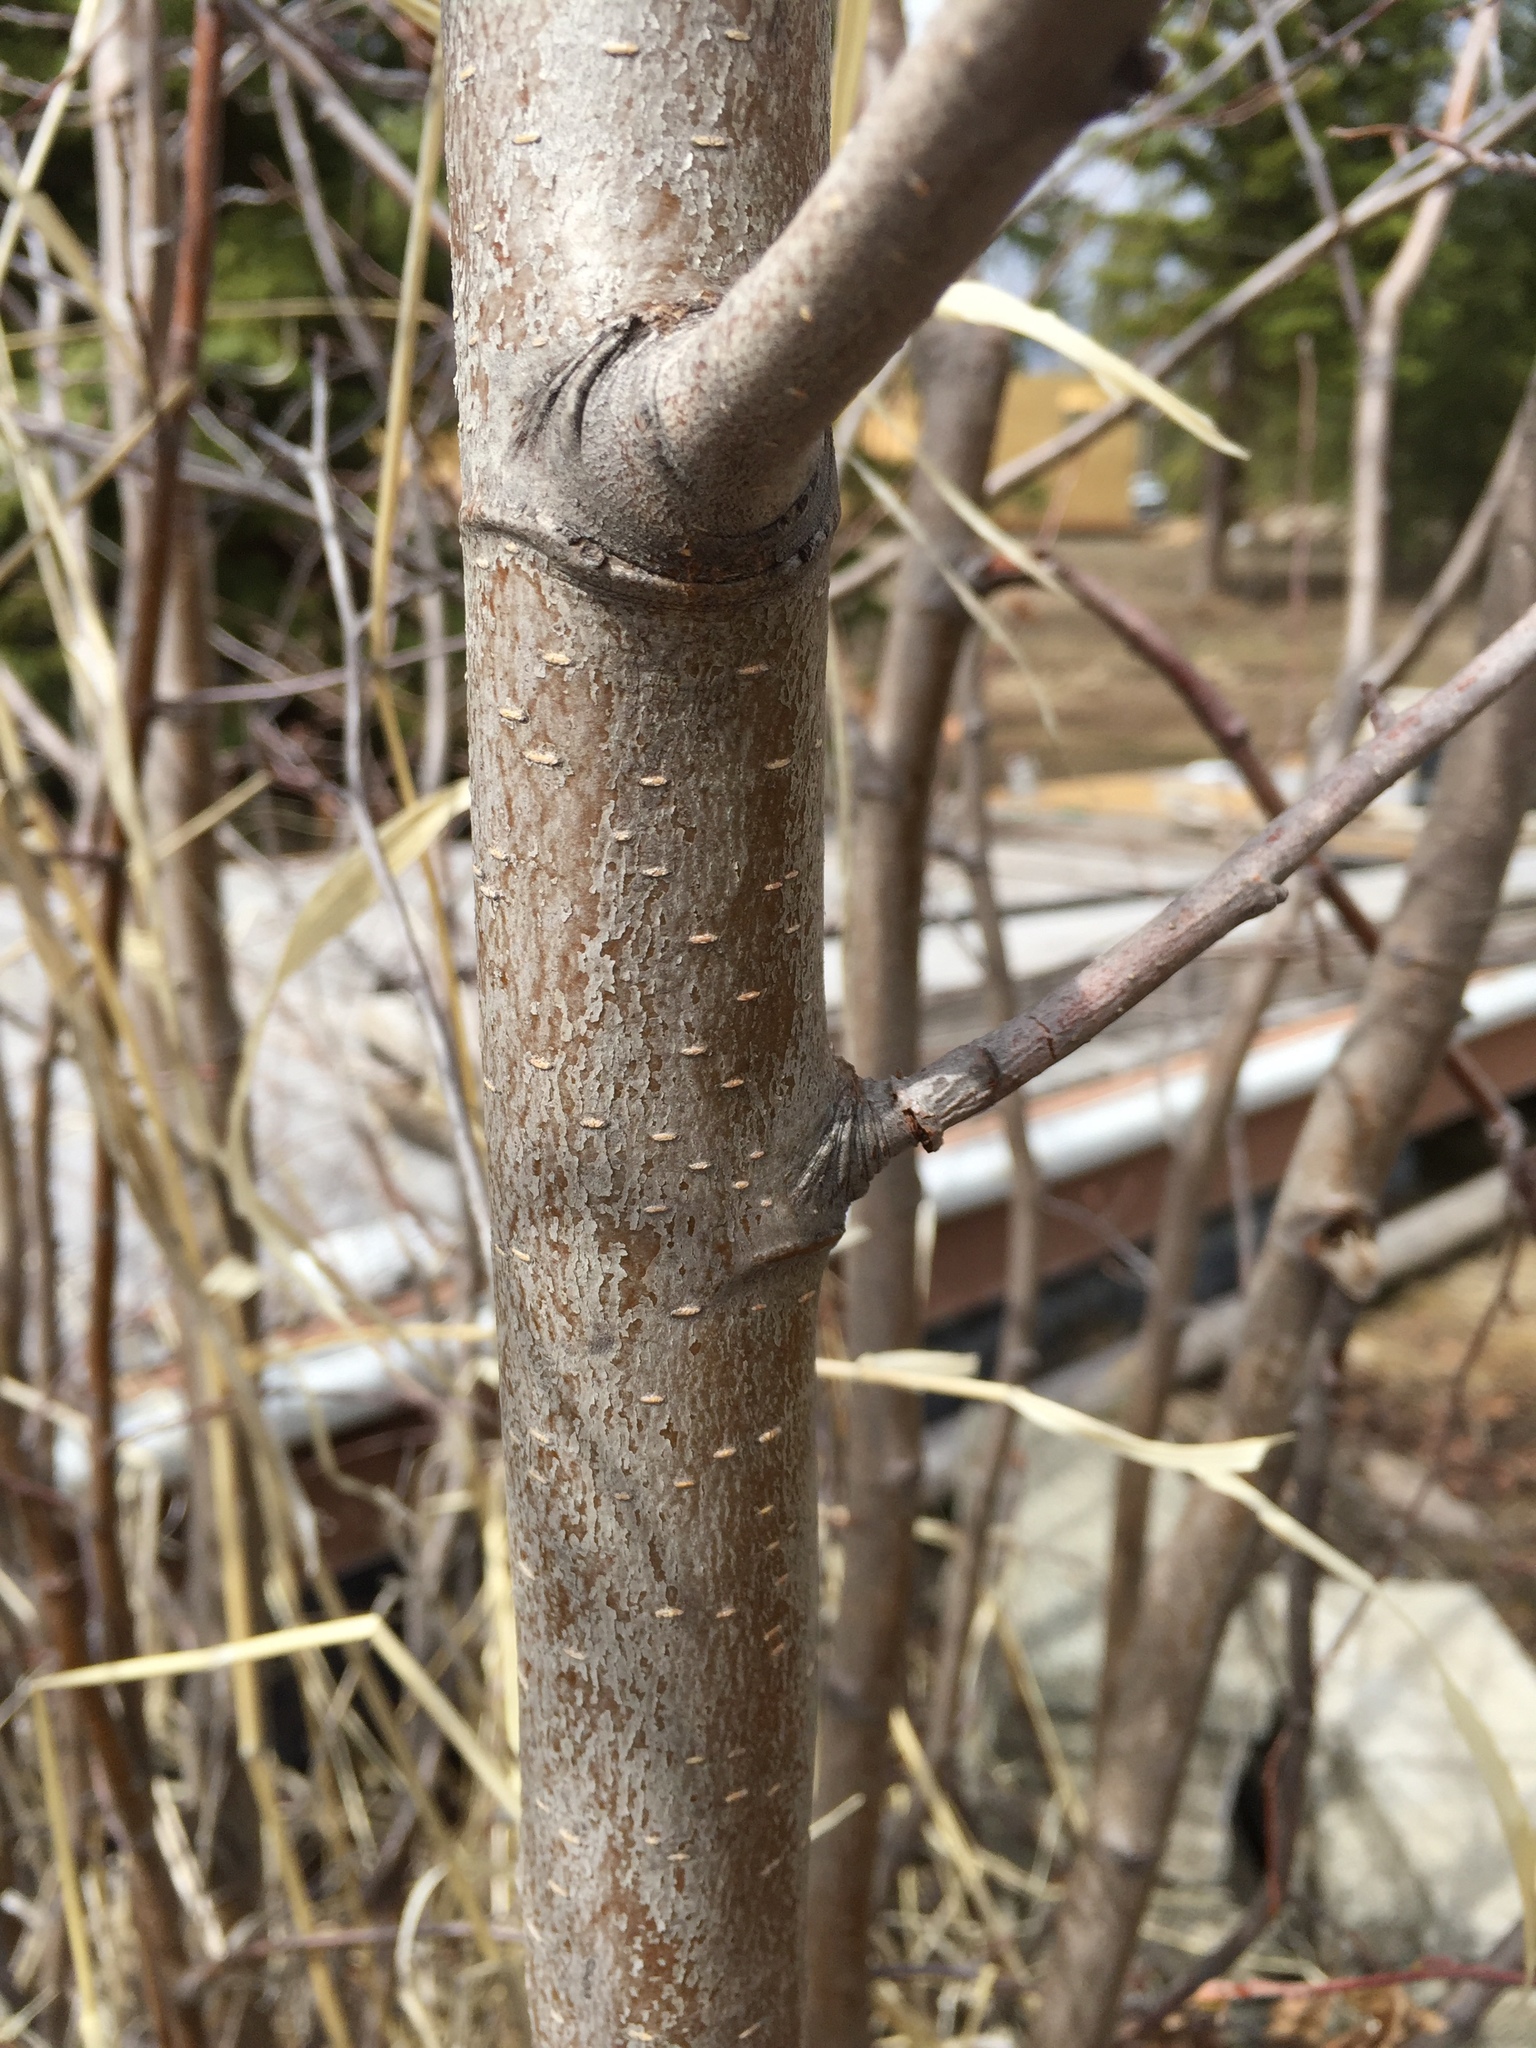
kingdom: Plantae
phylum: Tracheophyta
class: Magnoliopsida
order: Fagales
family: Betulaceae
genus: Alnus
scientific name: Alnus incana
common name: Grey alder
